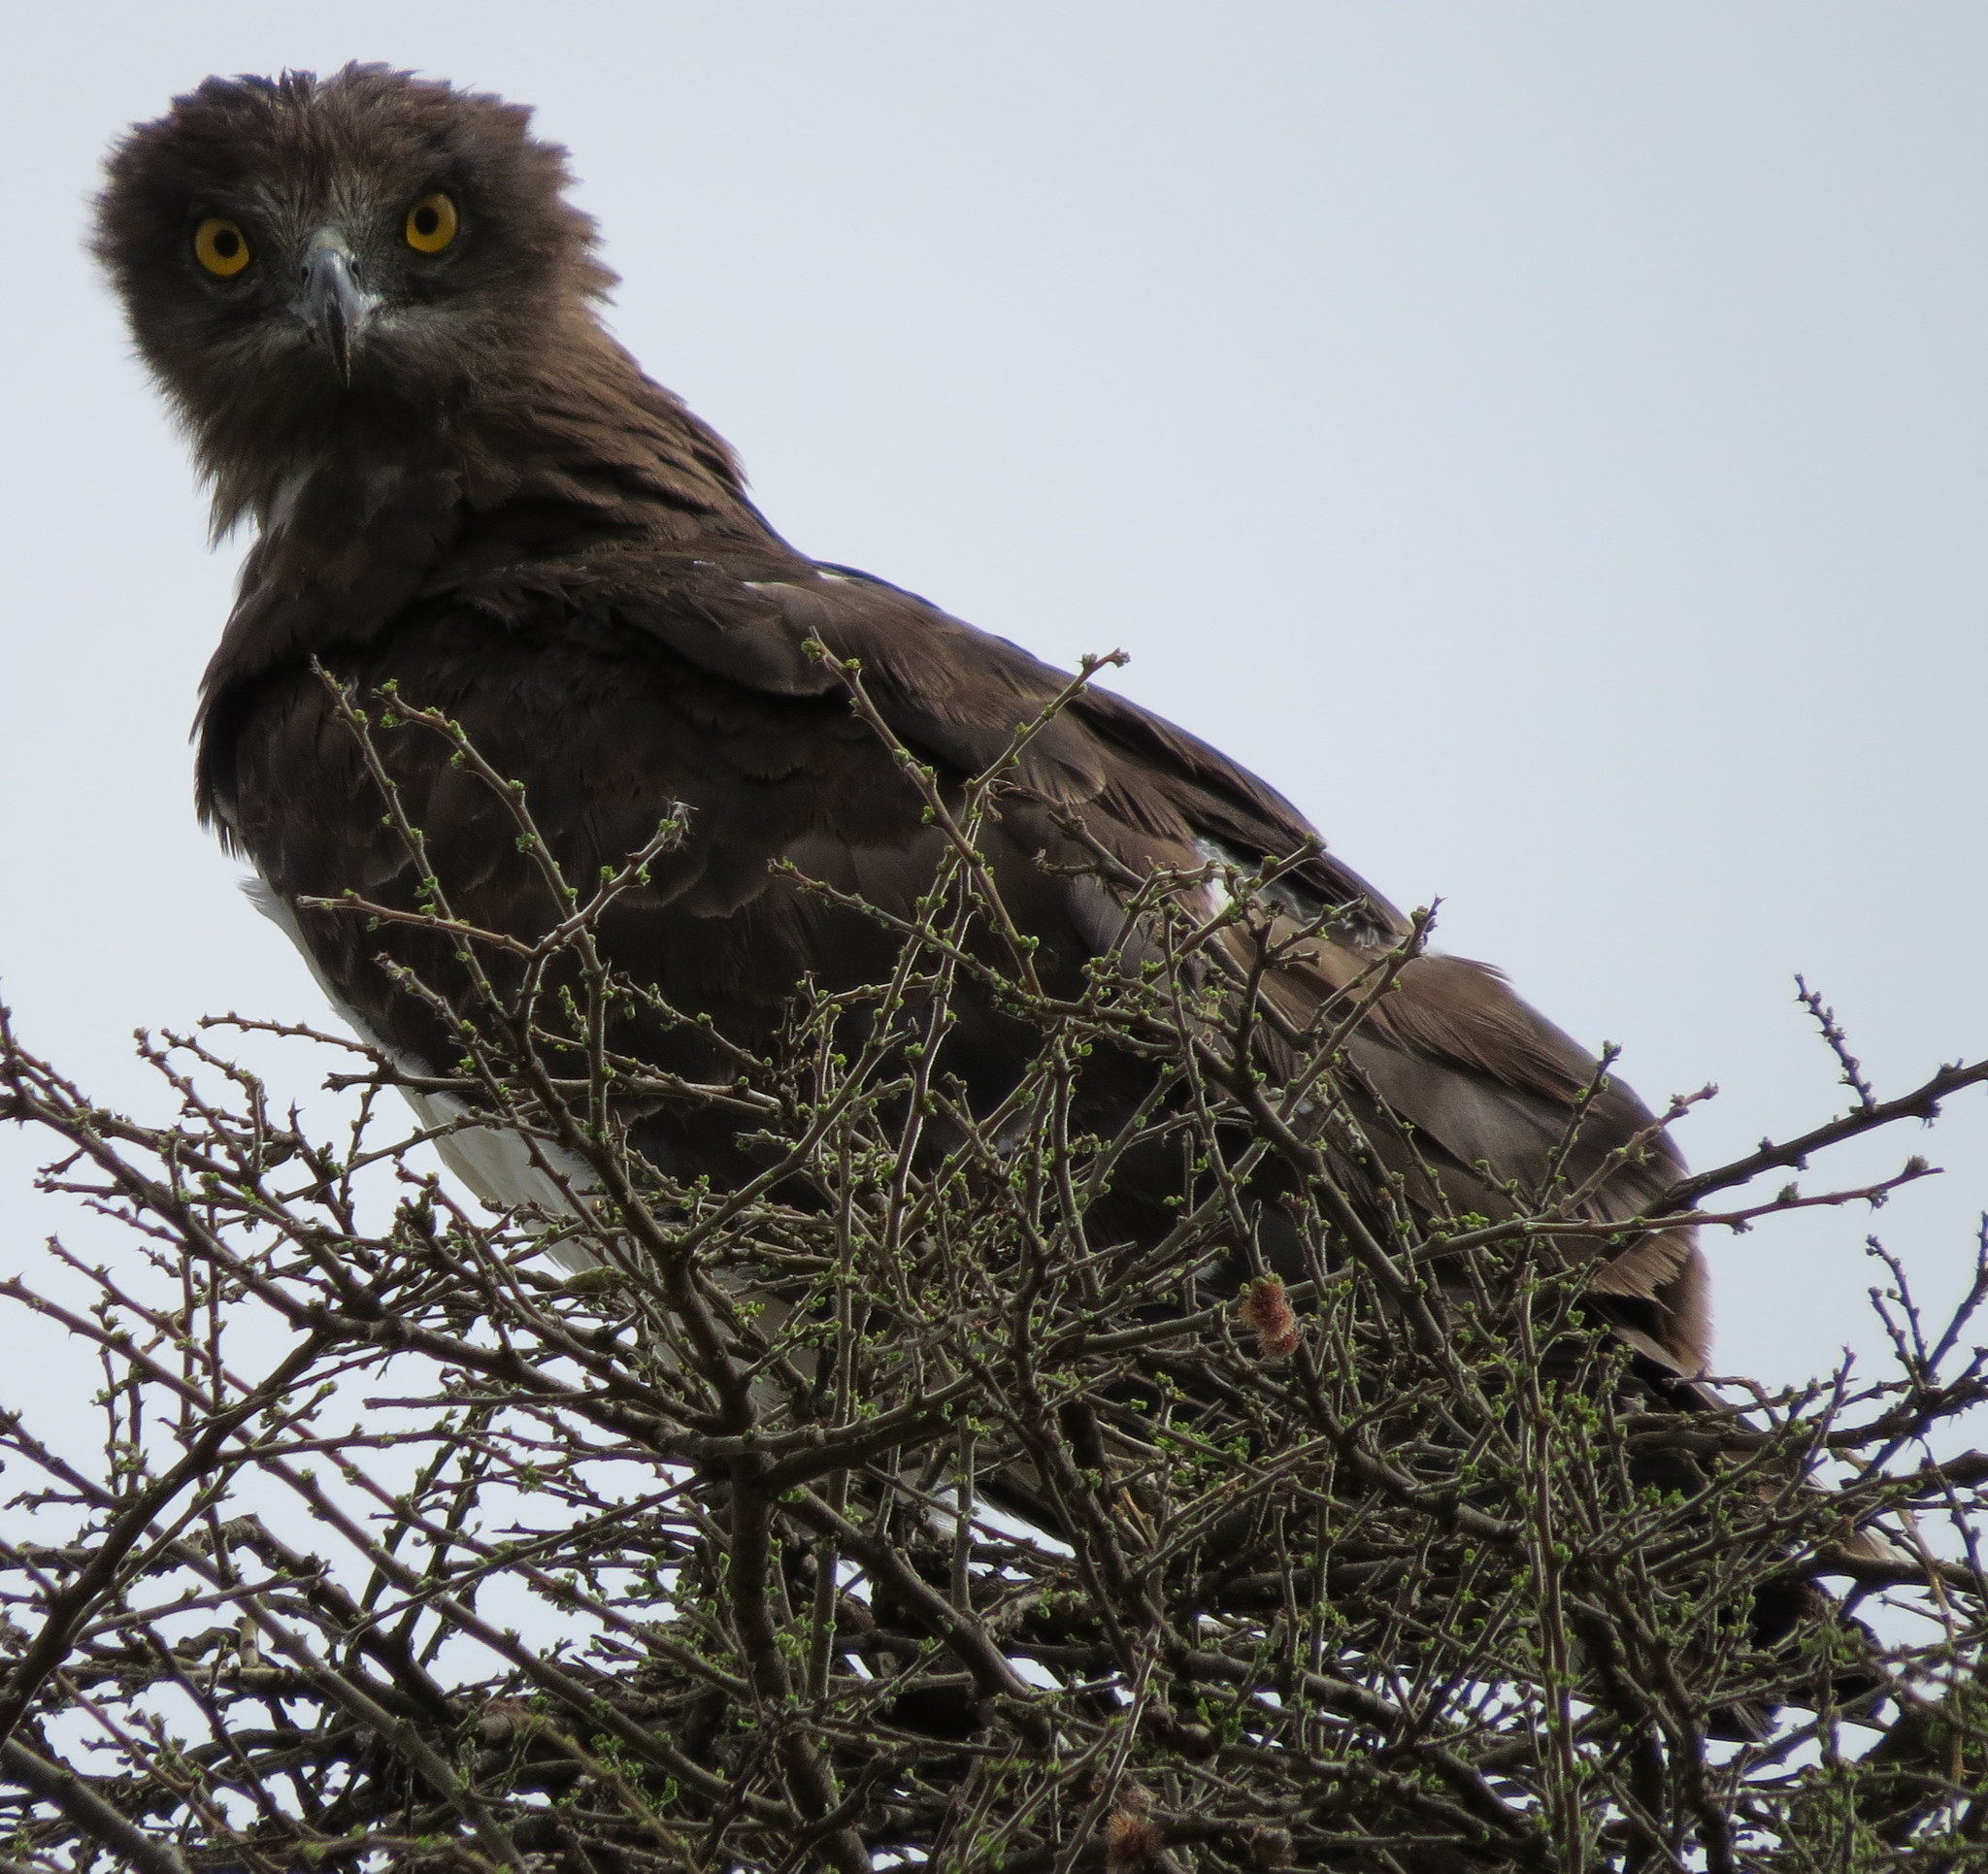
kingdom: Animalia
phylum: Chordata
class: Aves
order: Accipitriformes
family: Accipitridae
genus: Circaetus
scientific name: Circaetus cinereus
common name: Brown snake eagle
